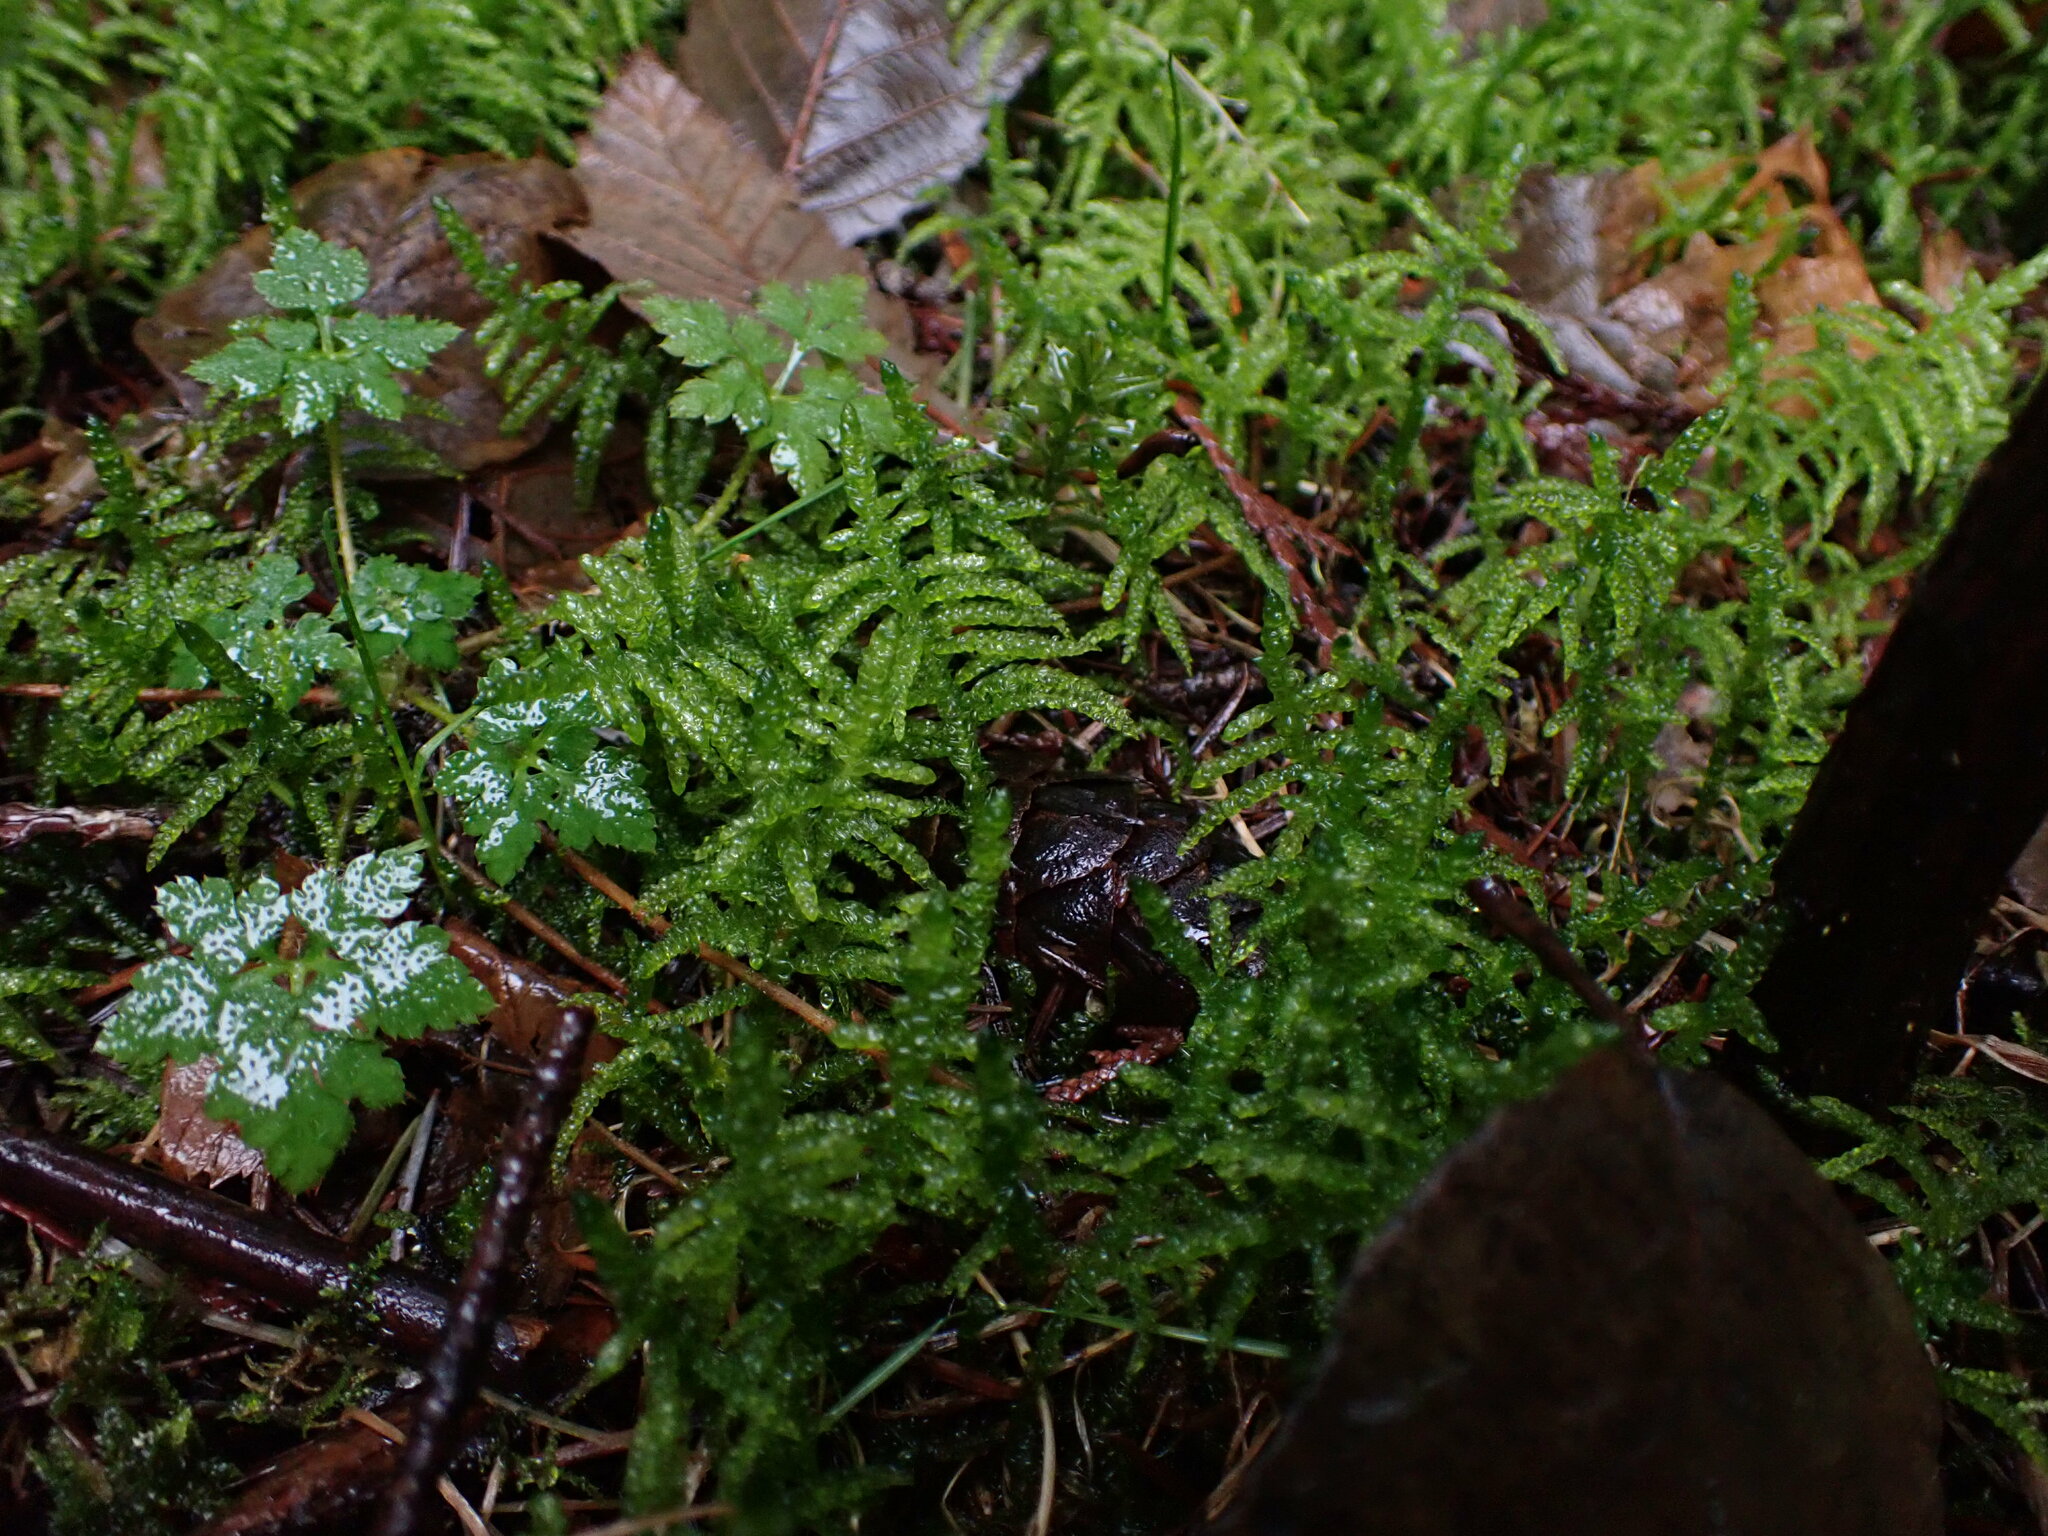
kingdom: Plantae
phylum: Bryophyta
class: Bryopsida
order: Hypnales
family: Brachytheciaceae
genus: Pseudoscleropodium
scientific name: Pseudoscleropodium purum
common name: Neat feather-moss
